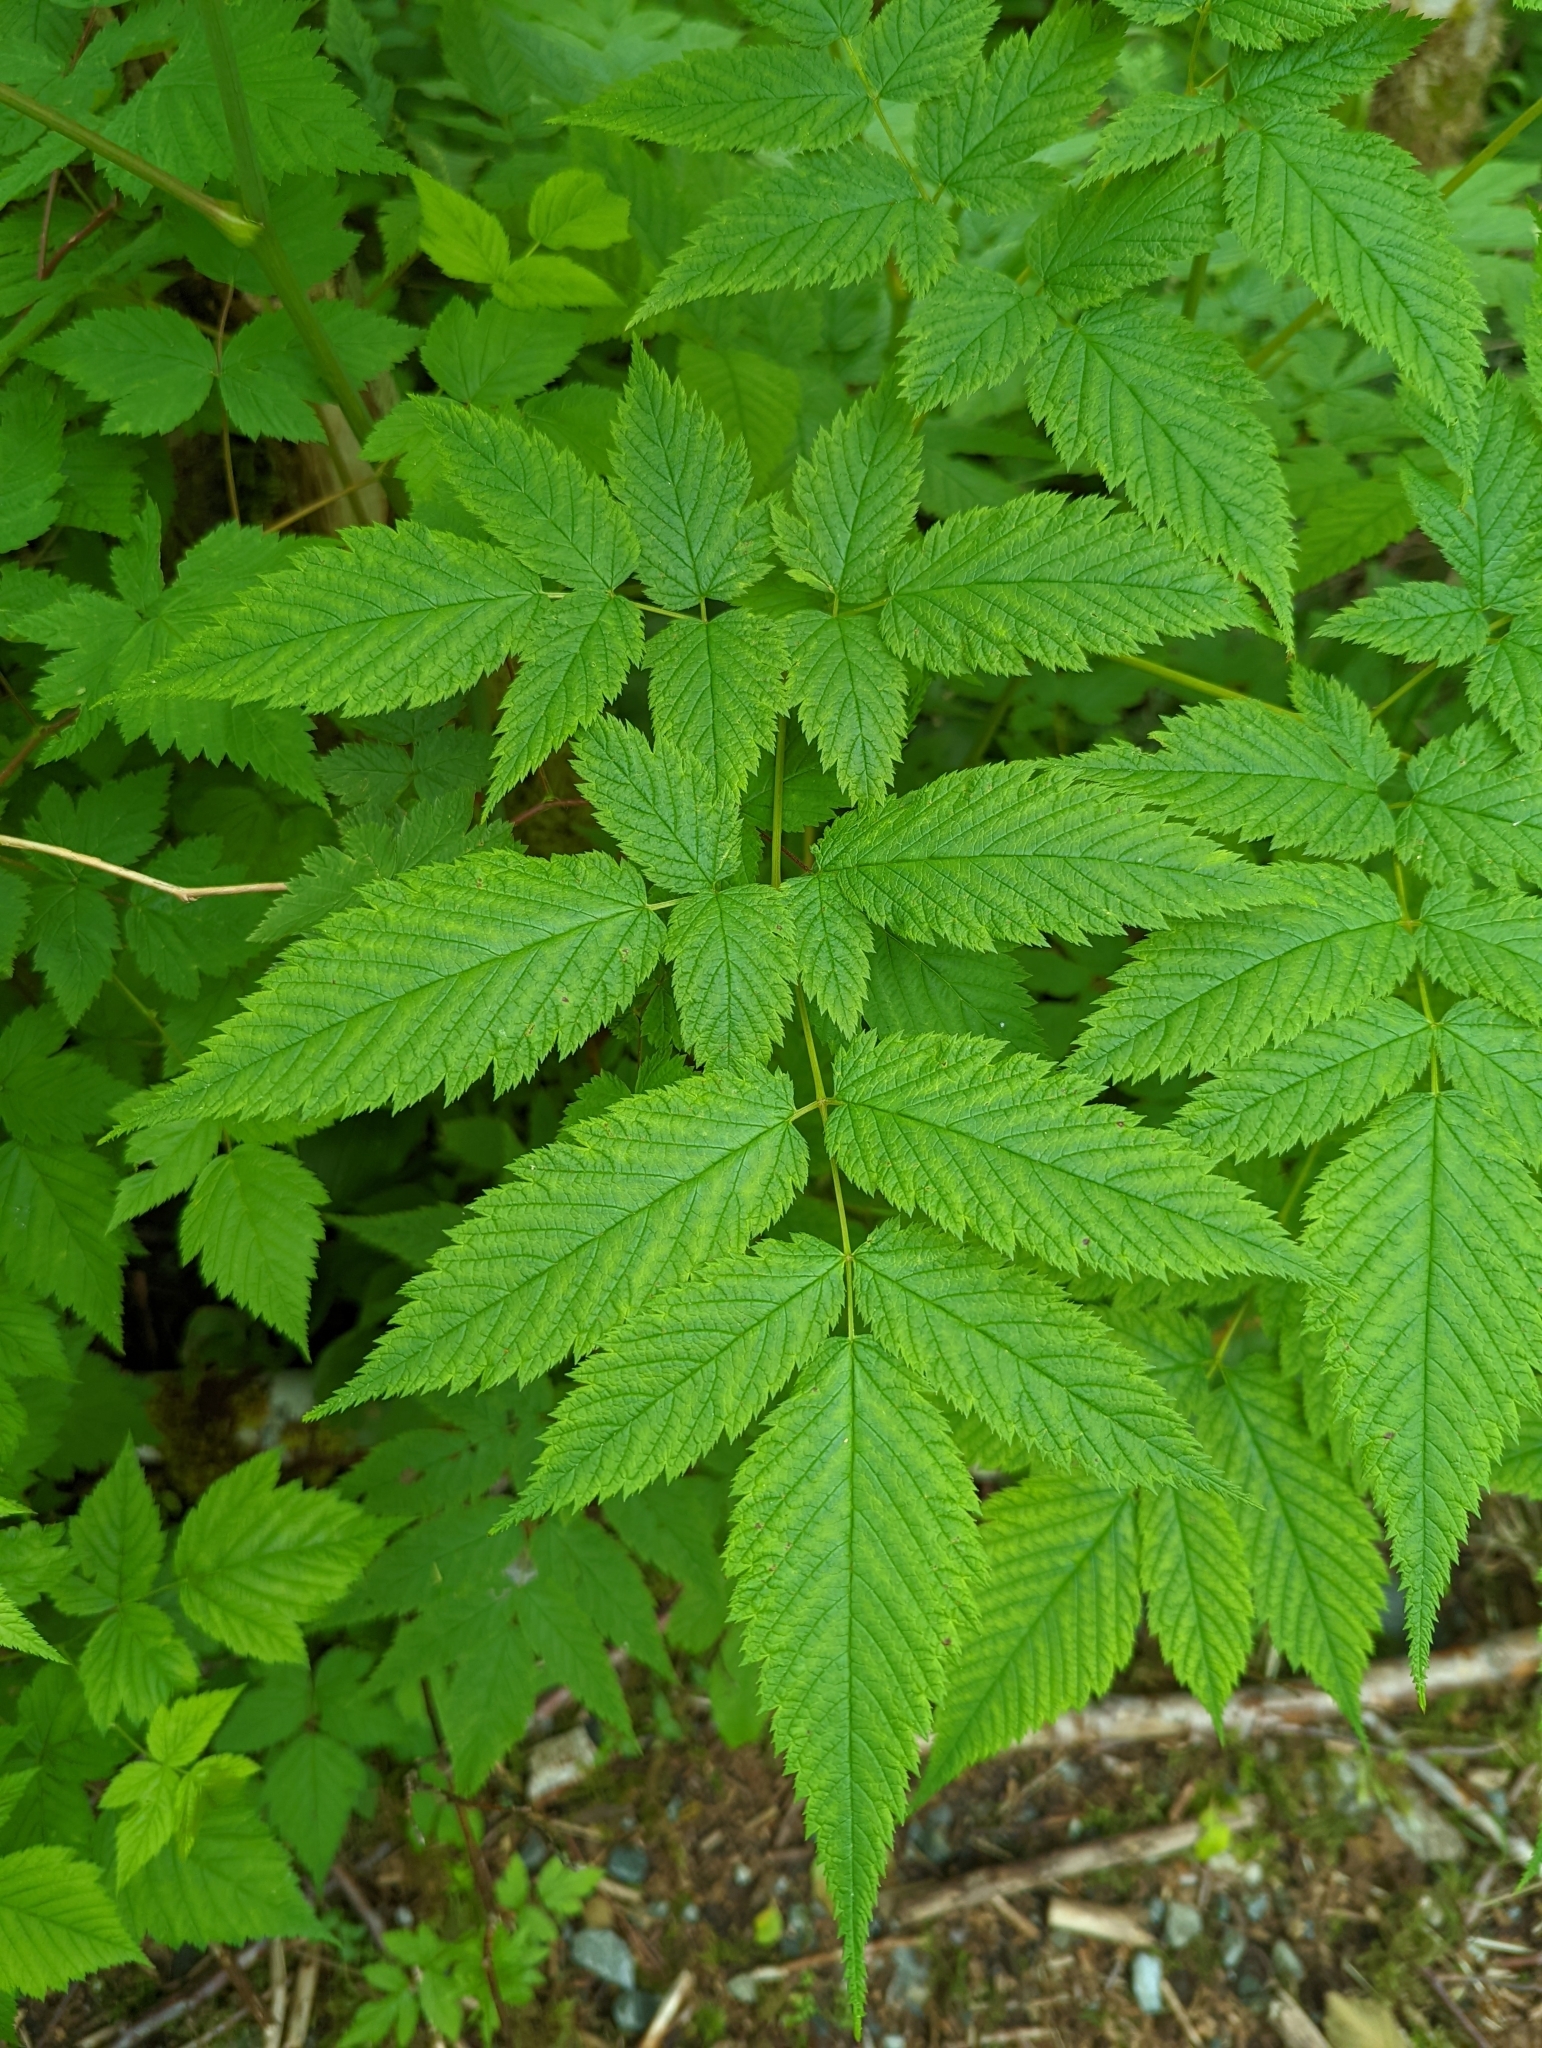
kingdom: Plantae
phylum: Tracheophyta
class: Magnoliopsida
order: Rosales
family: Rosaceae
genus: Aruncus
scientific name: Aruncus dioicus
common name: Buck's-beard
